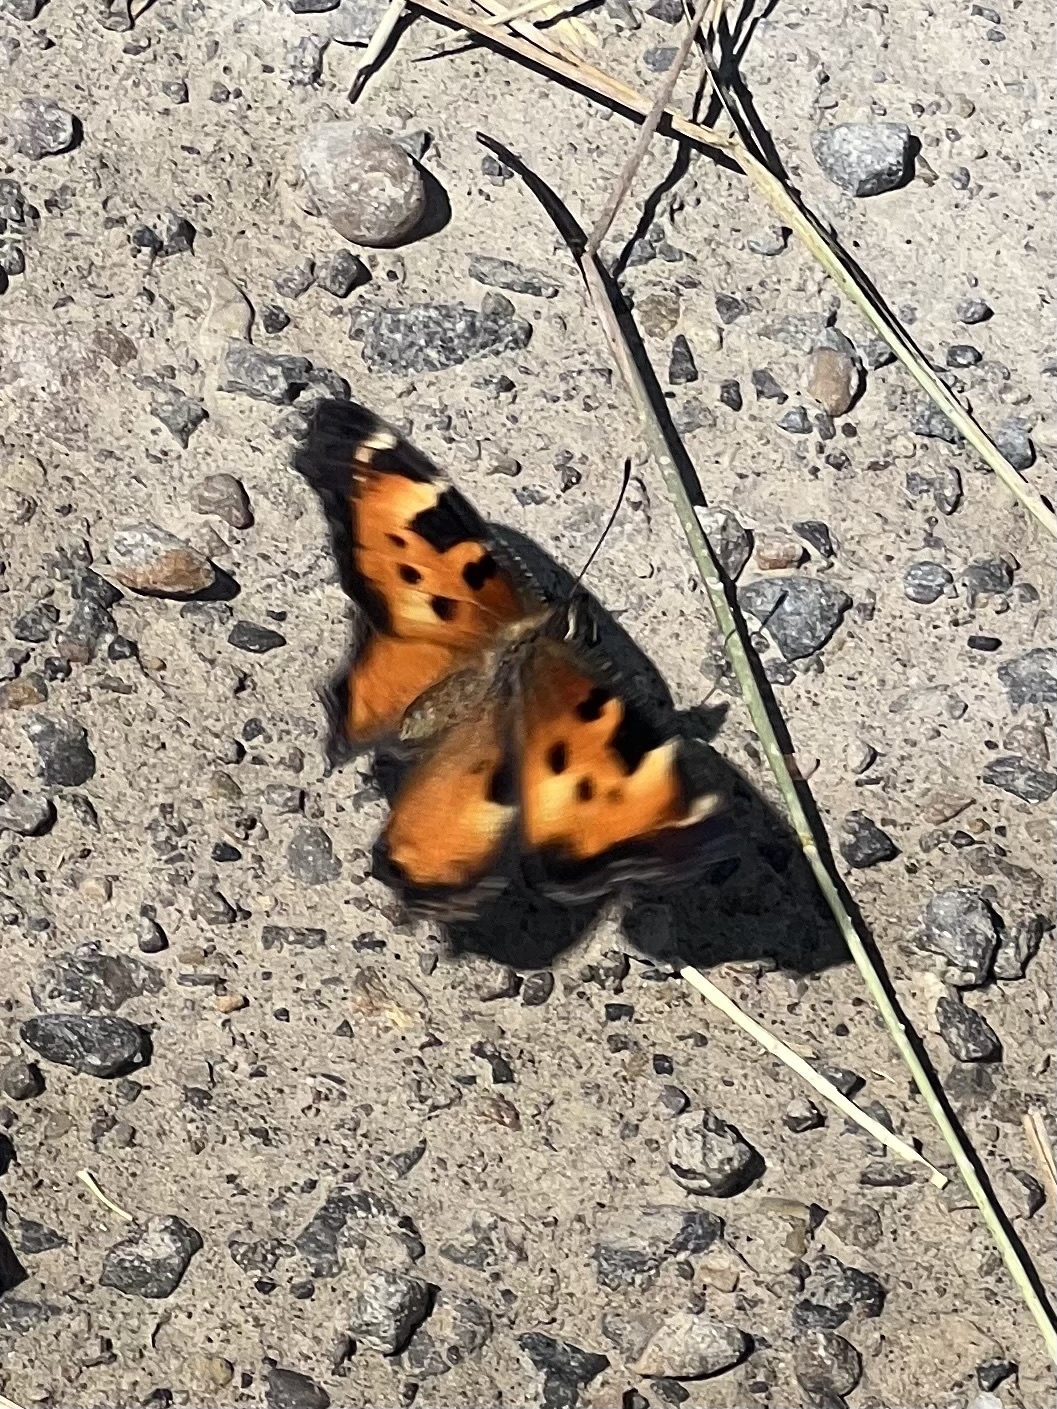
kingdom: Animalia
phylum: Arthropoda
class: Insecta
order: Lepidoptera
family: Nymphalidae
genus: Nymphalis
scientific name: Nymphalis californica
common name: California tortoiseshell
